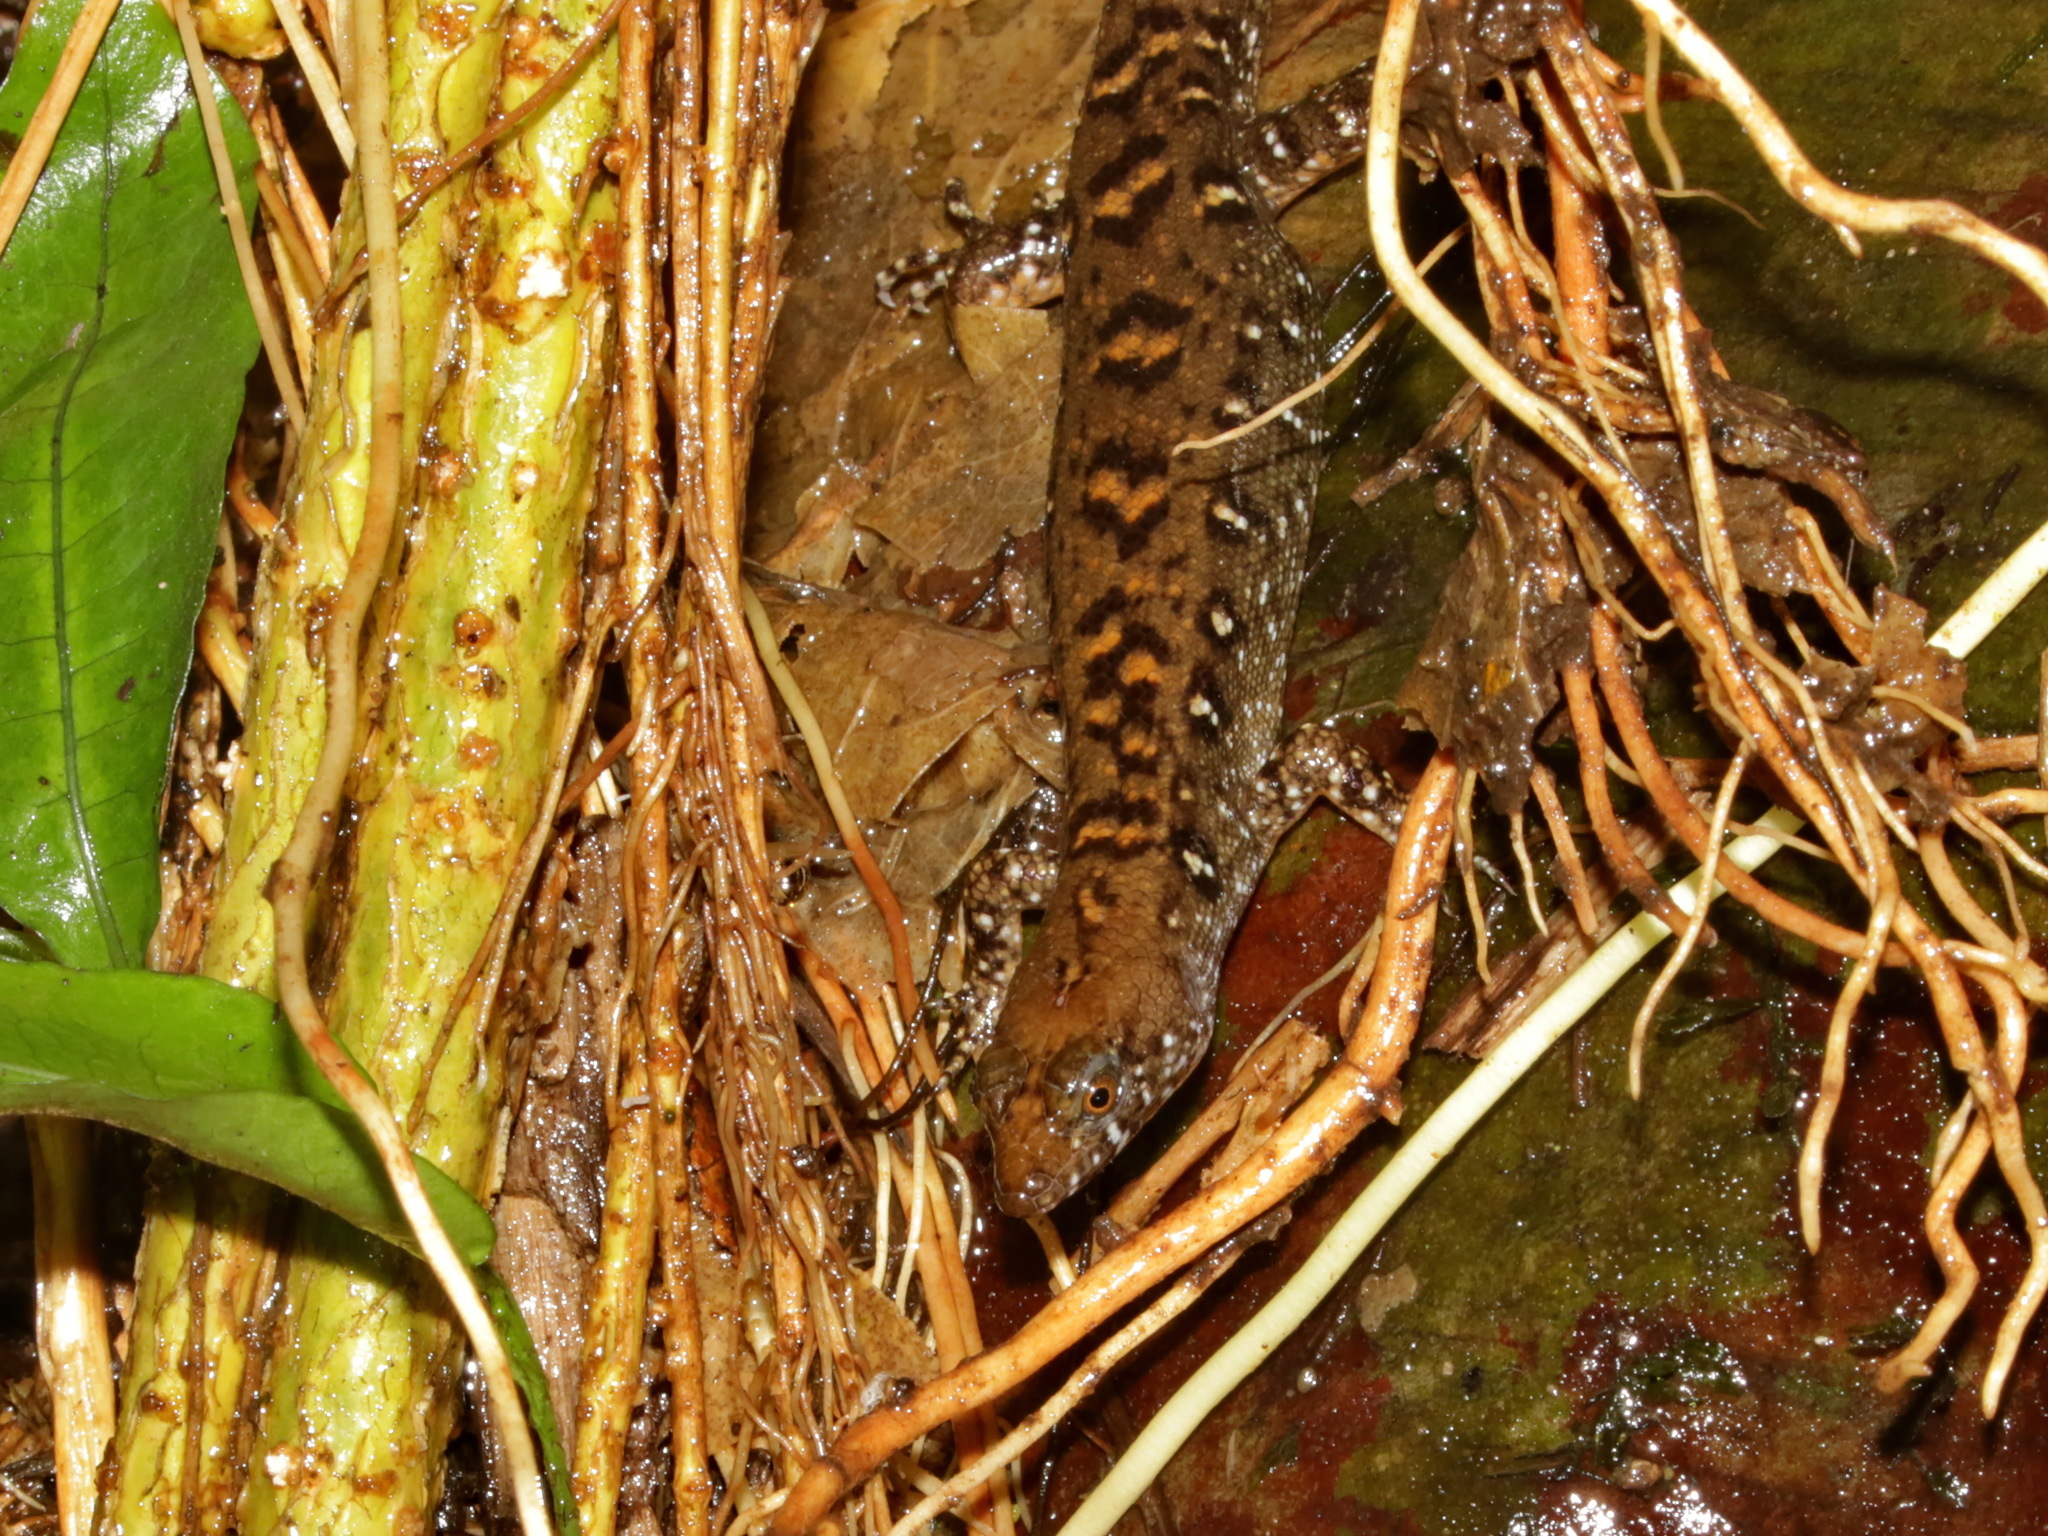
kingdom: Animalia
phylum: Chordata
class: Squamata
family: Scincidae
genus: Tropidophorus
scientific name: Tropidophorus berdmorei
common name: Berdmore’s water skink
